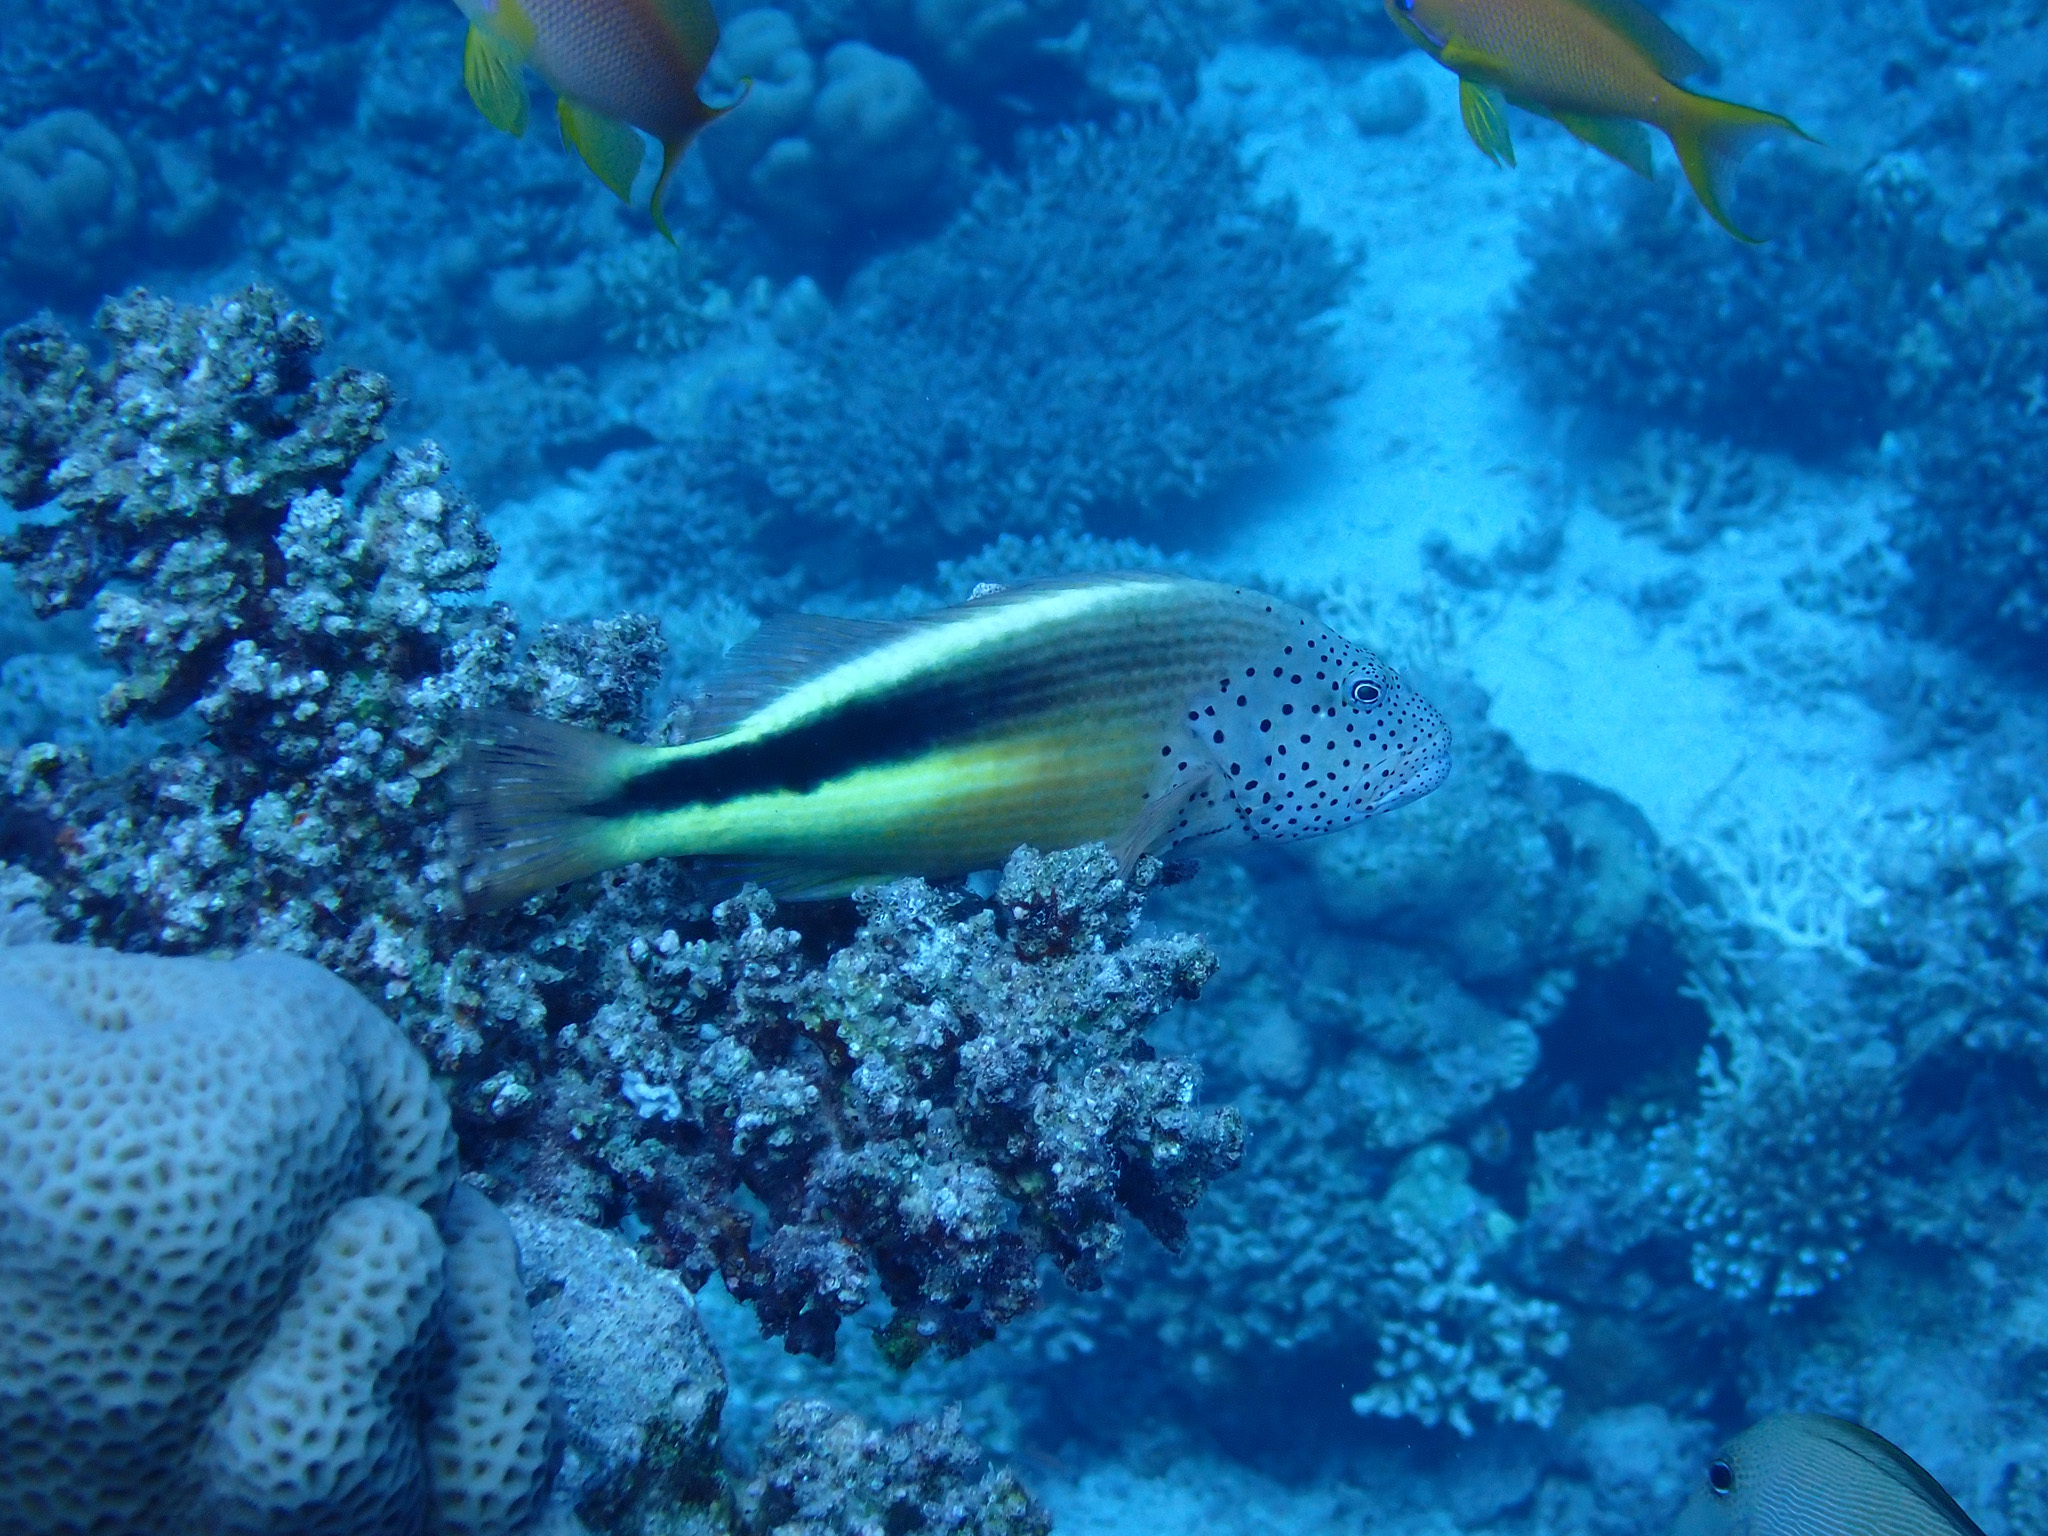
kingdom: Animalia
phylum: Chordata
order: Perciformes
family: Cirrhitidae
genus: Paracirrhites
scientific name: Paracirrhites forsteri
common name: Freckled hawkfish
